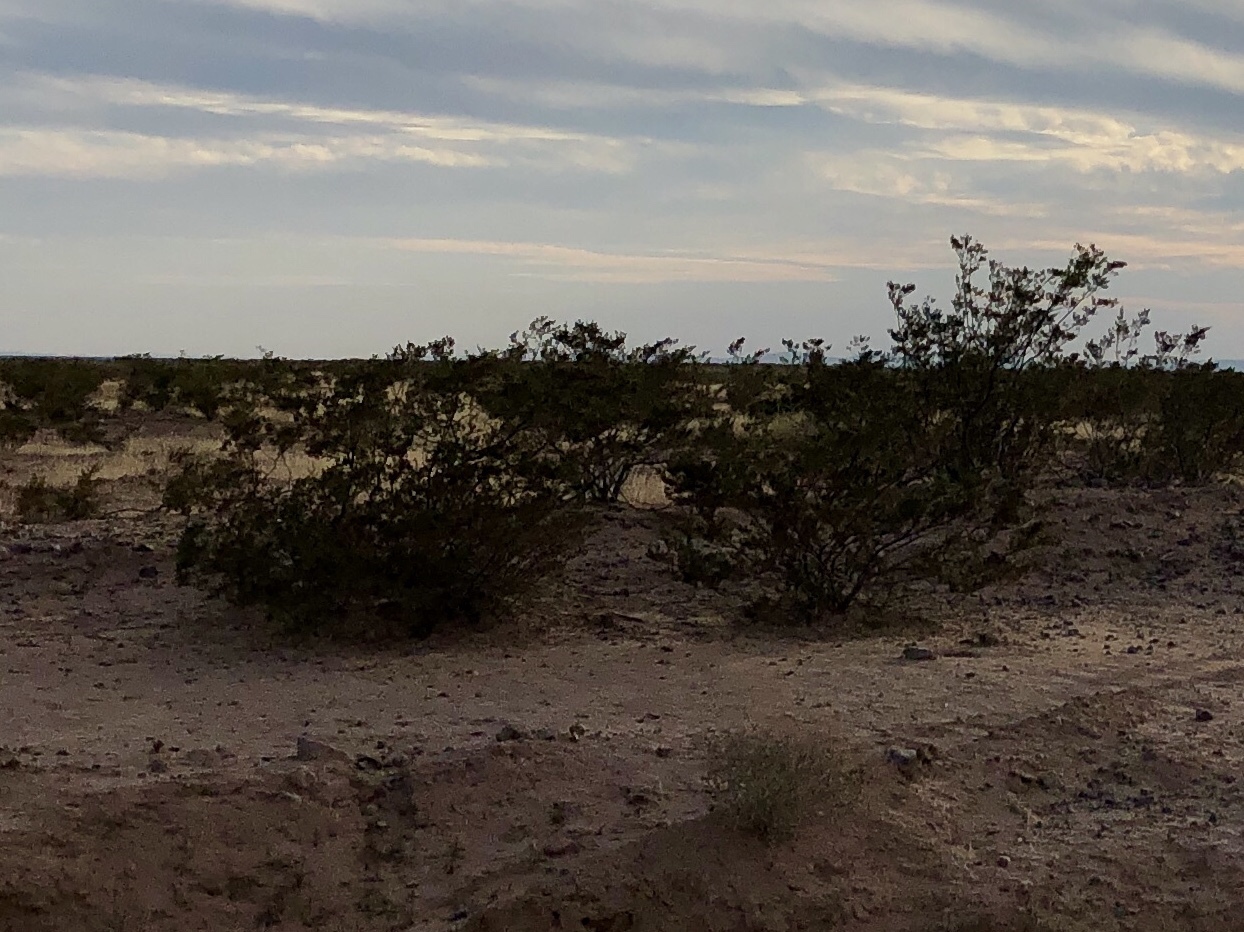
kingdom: Plantae
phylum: Tracheophyta
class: Magnoliopsida
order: Zygophyllales
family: Zygophyllaceae
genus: Larrea
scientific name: Larrea tridentata
